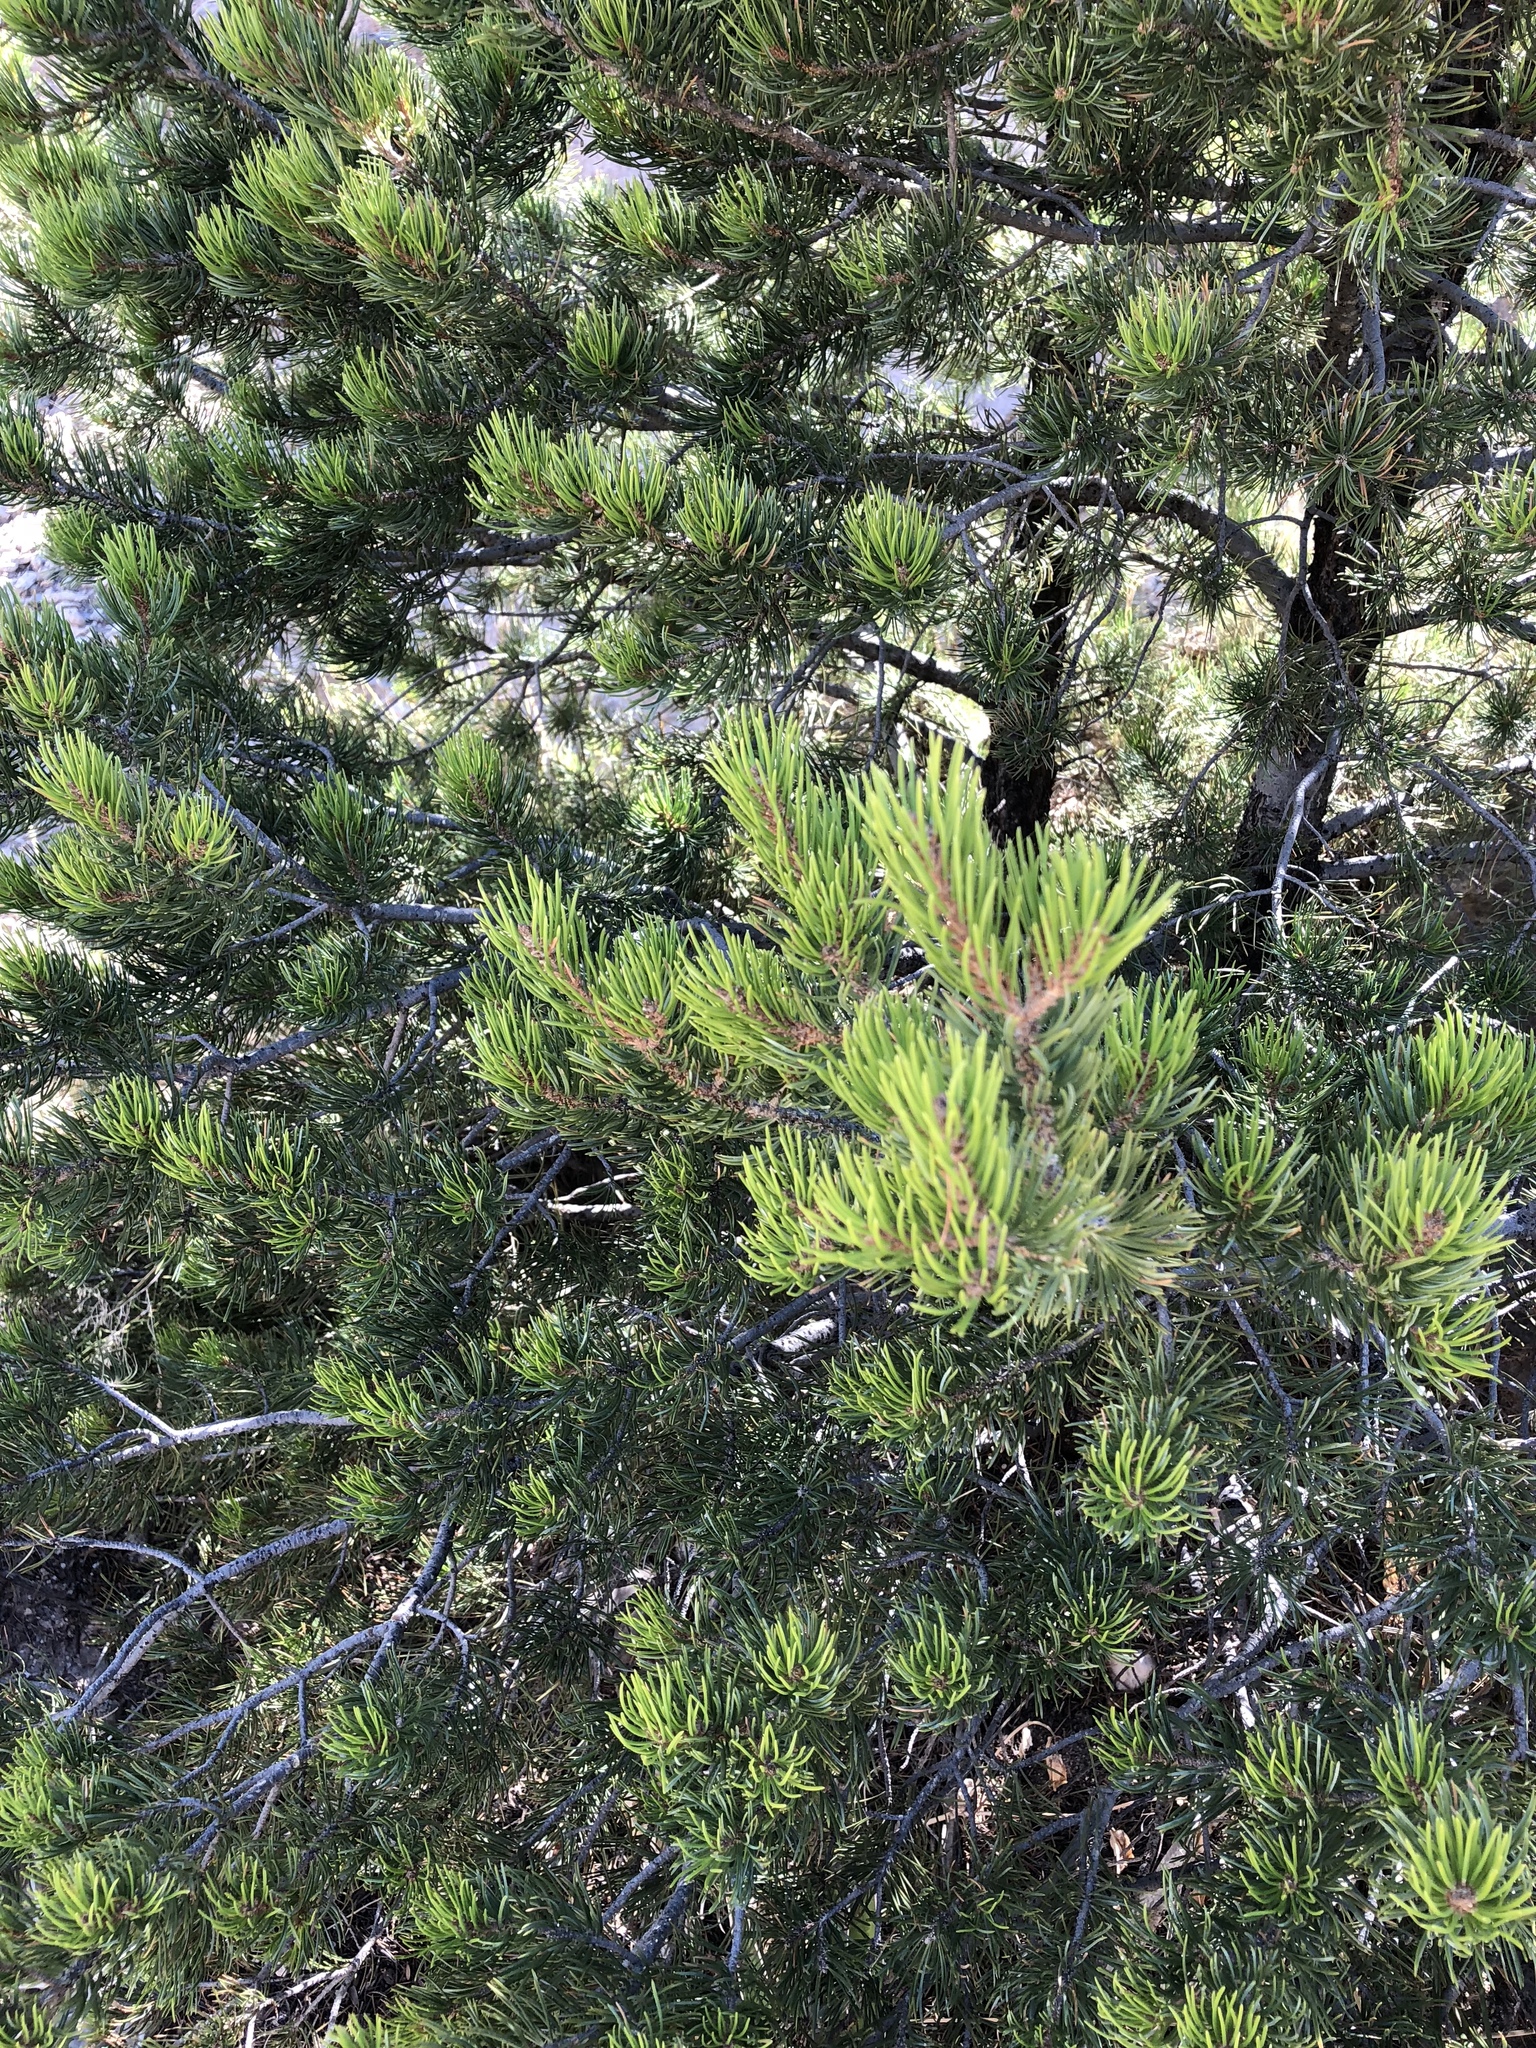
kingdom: Plantae
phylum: Tracheophyta
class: Pinopsida
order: Pinales
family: Pinaceae
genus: Pinus
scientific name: Pinus edulis
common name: Colorado pinyon
